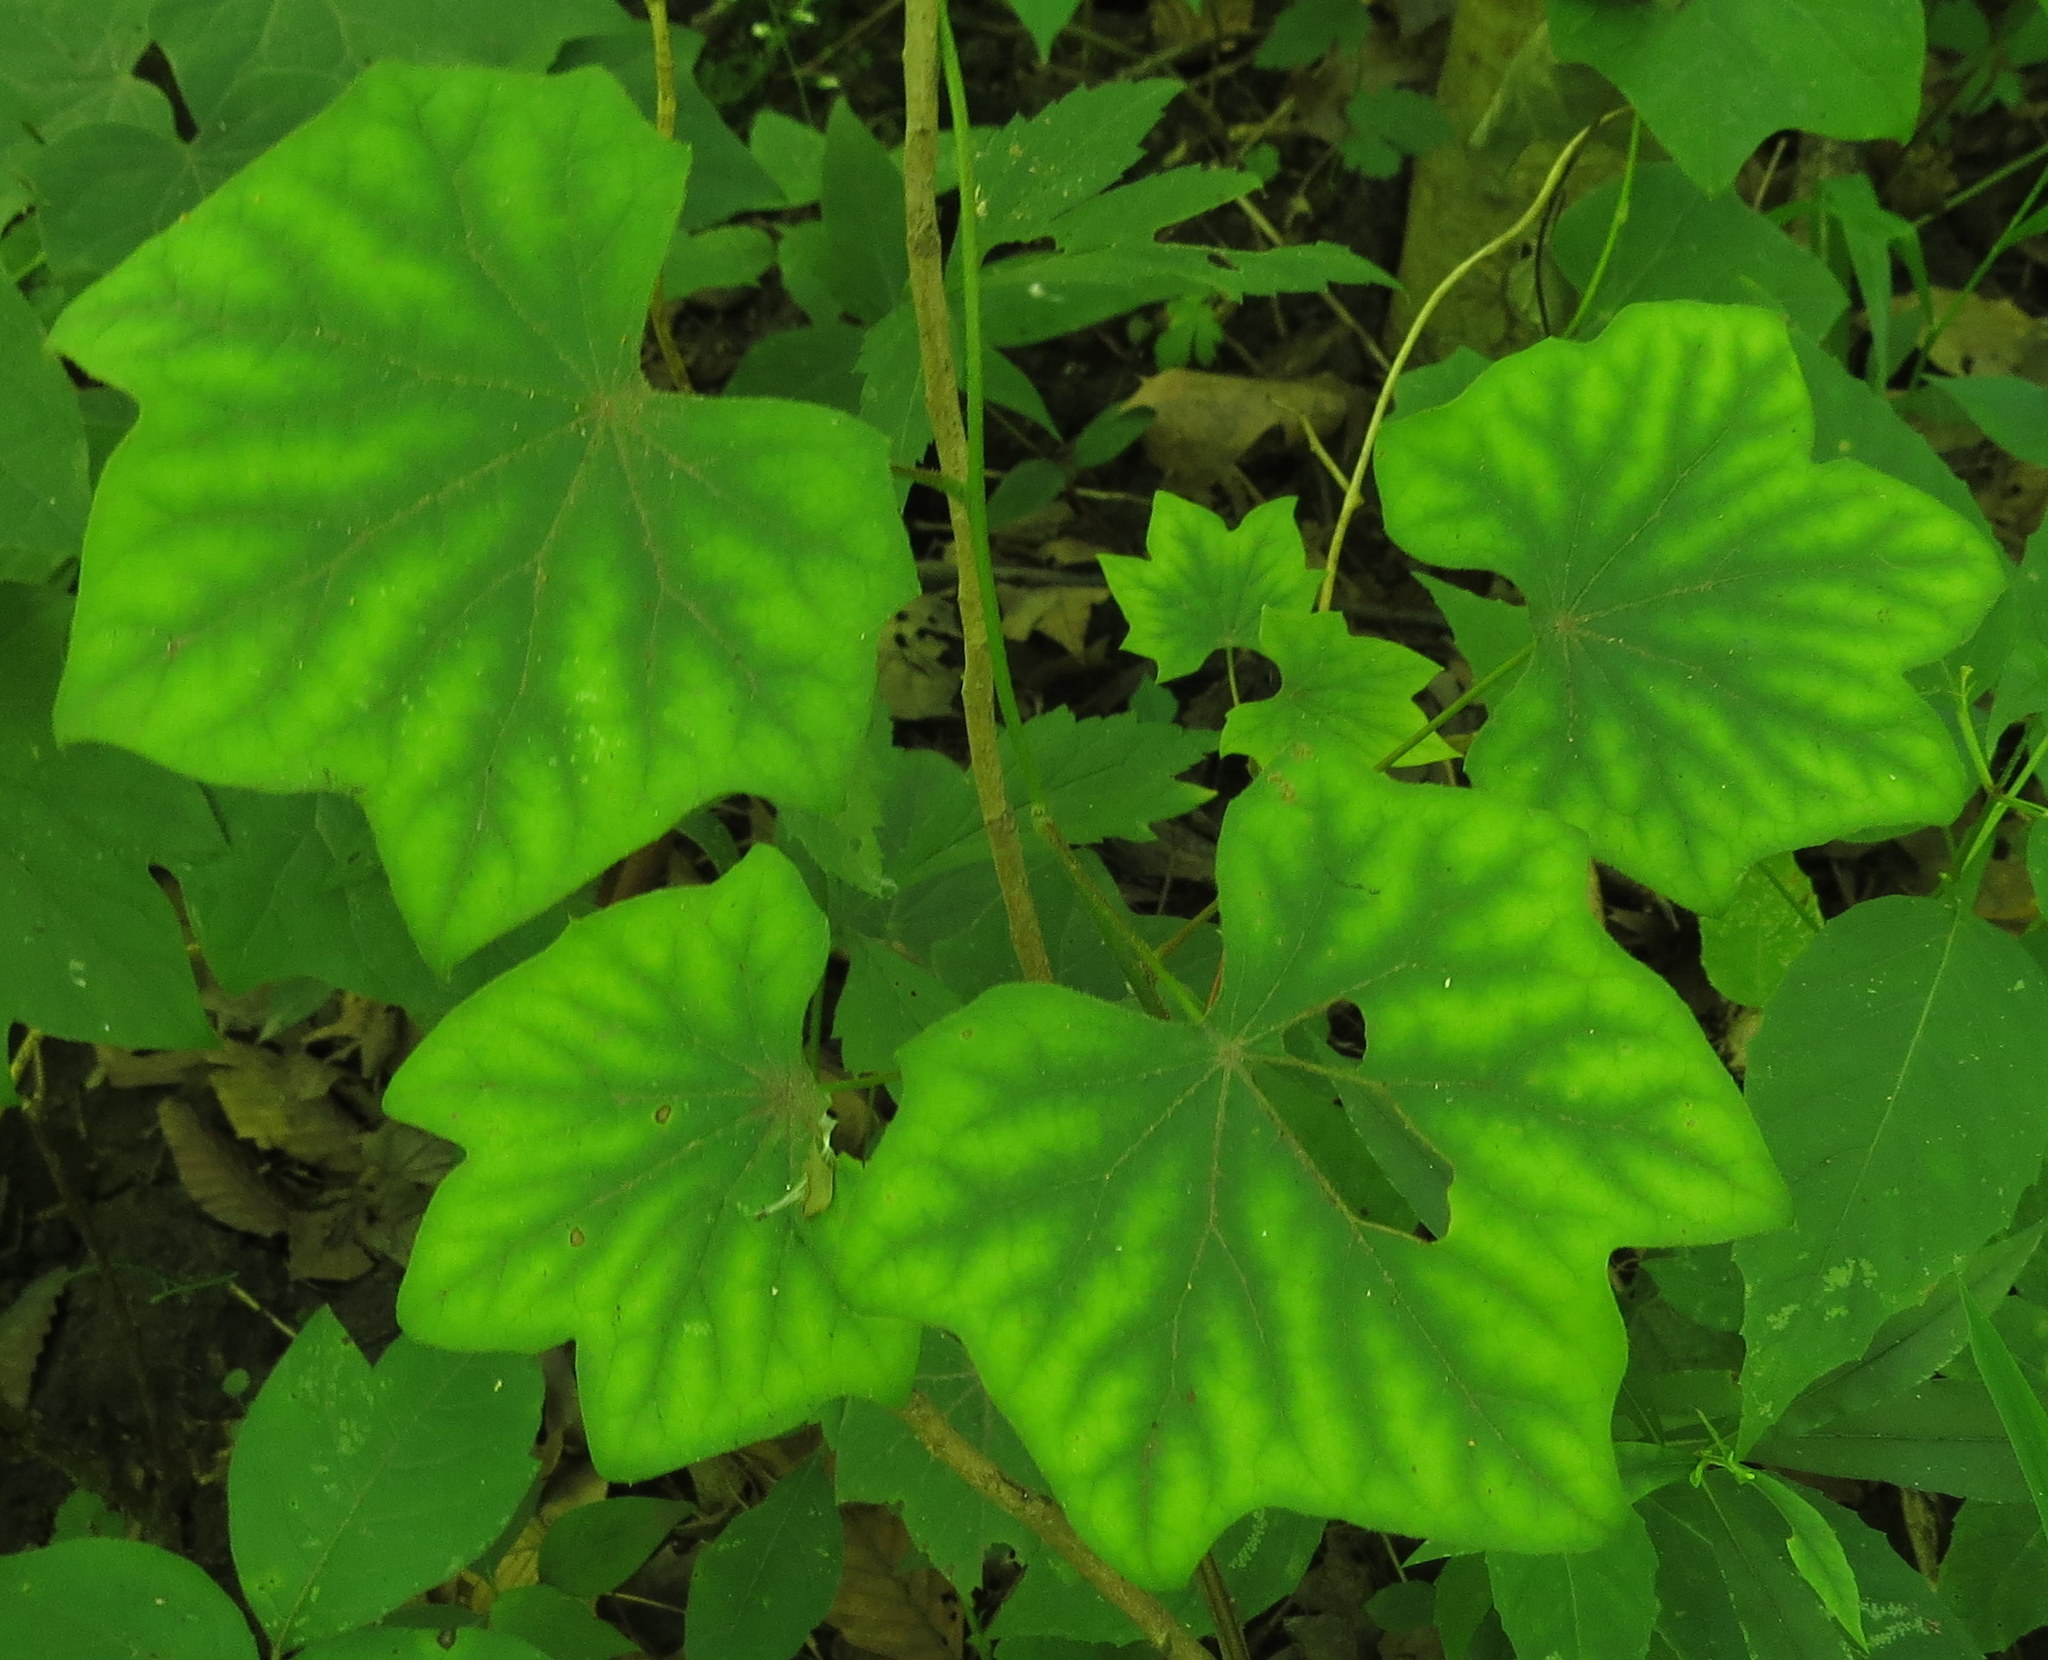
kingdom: Plantae
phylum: Tracheophyta
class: Magnoliopsida
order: Ranunculales
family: Menispermaceae
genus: Menispermum
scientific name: Menispermum canadense
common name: Moonseed
